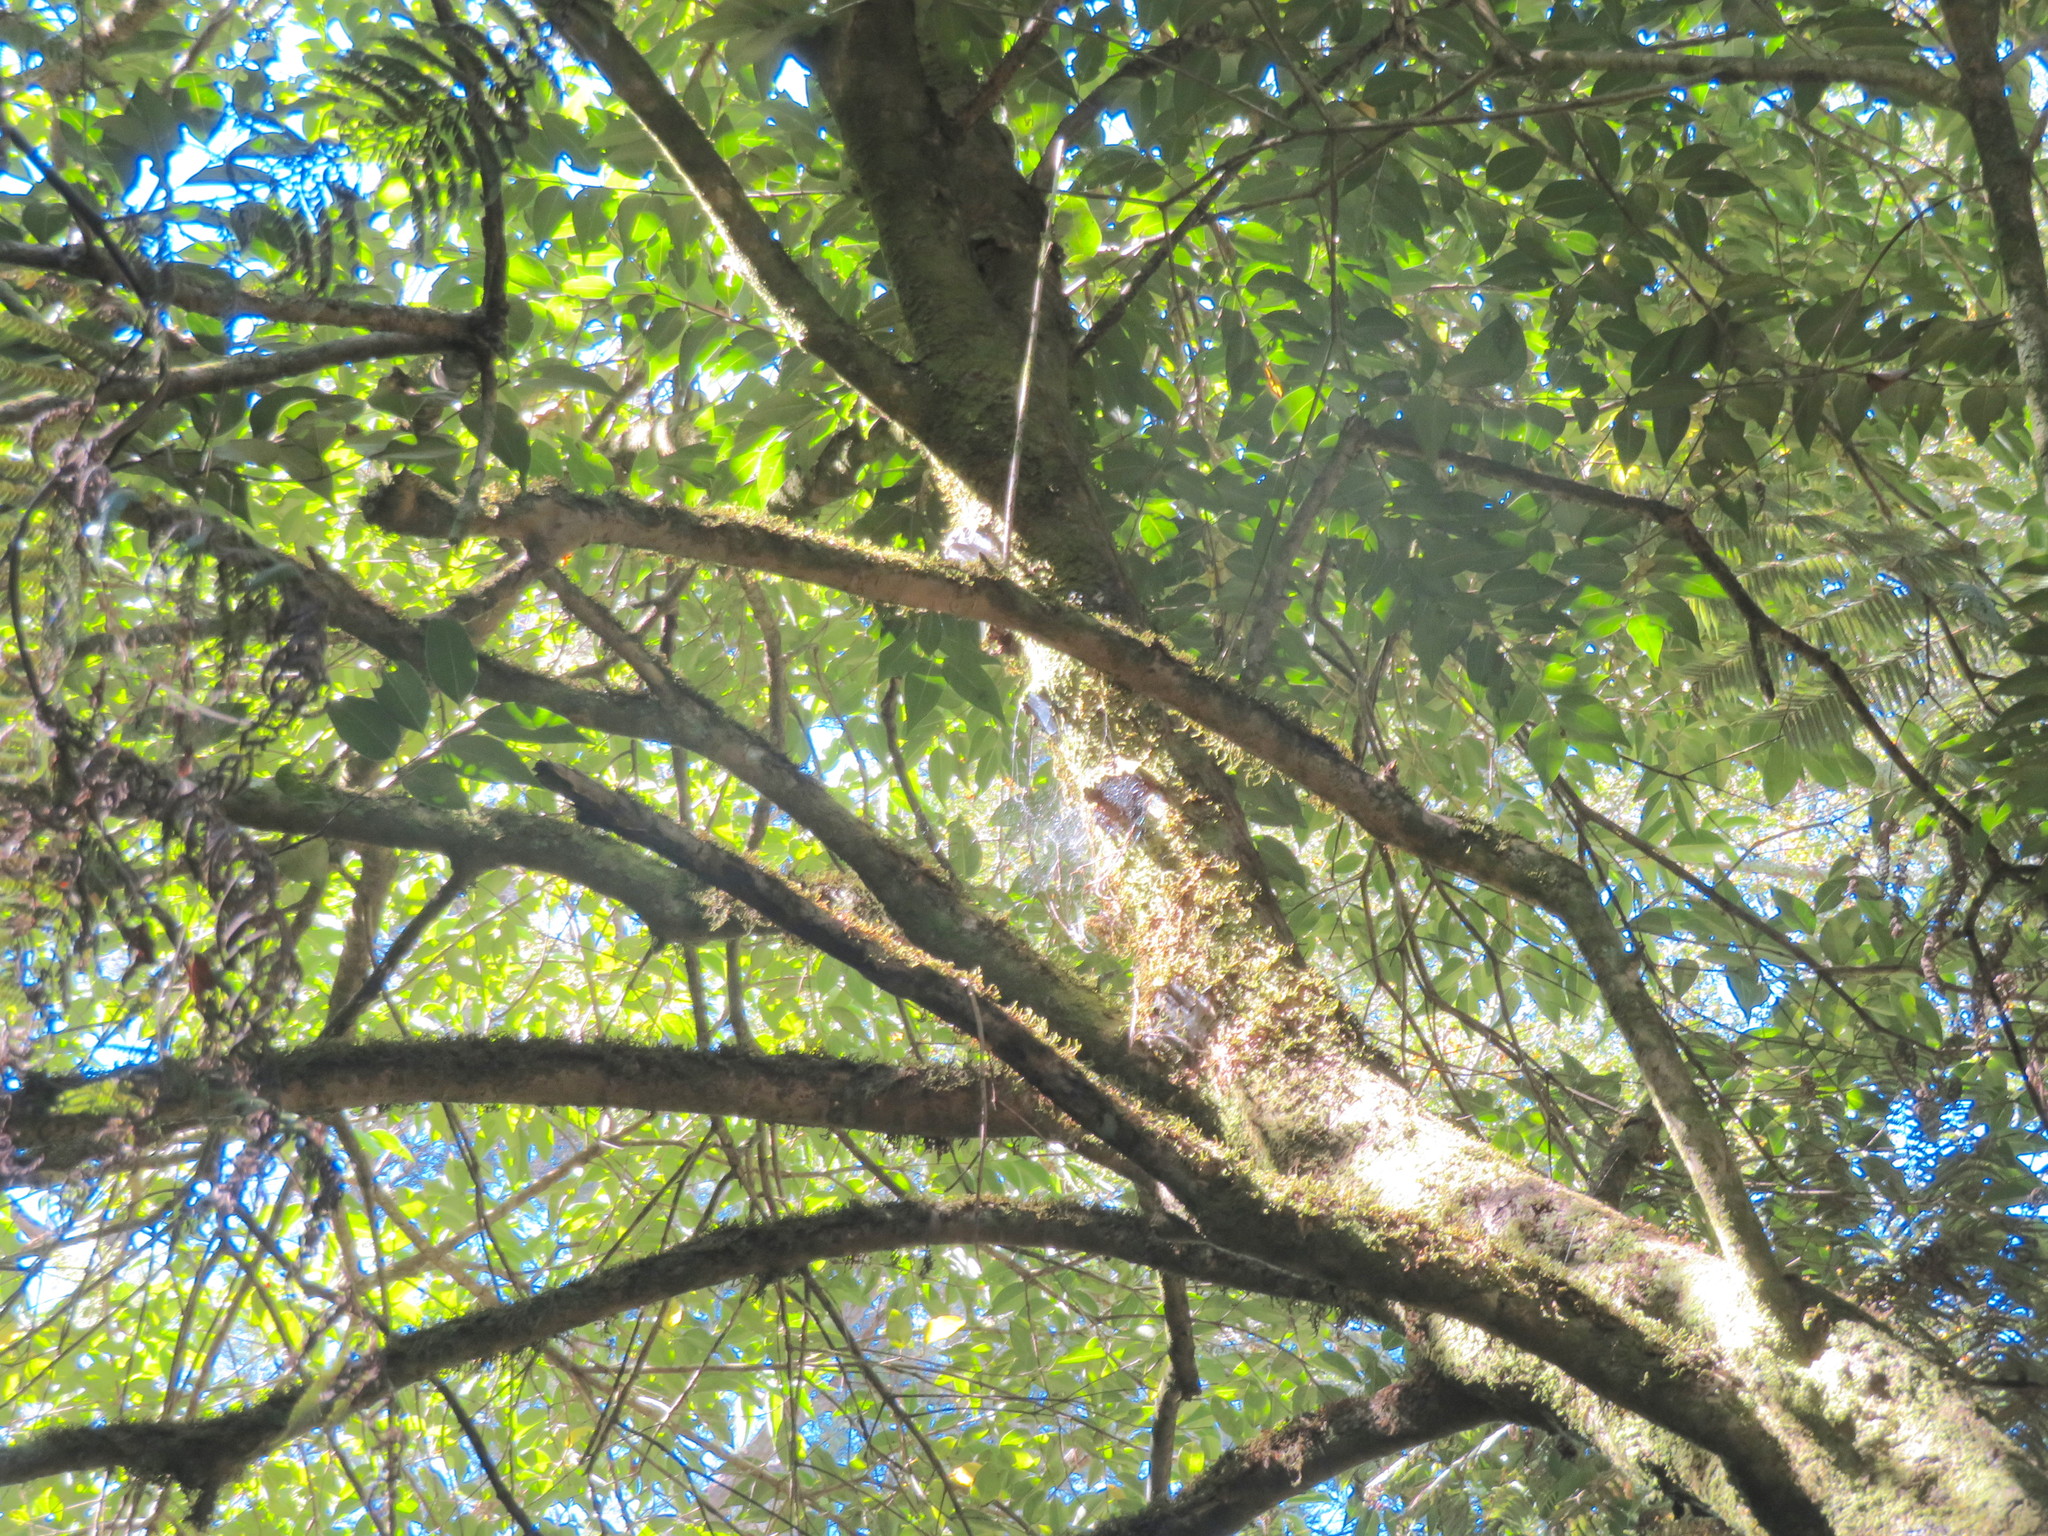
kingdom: Plantae
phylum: Tracheophyta
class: Magnoliopsida
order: Lamiales
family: Oleaceae
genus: Ligustrum
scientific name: Ligustrum lucidum
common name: Glossy privet
